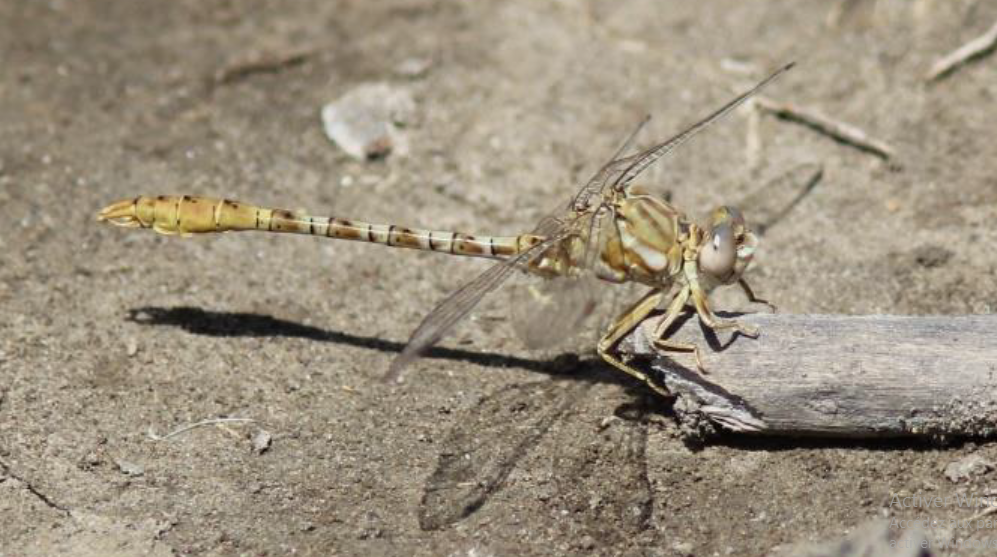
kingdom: Animalia
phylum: Arthropoda
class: Insecta
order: Odonata
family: Gomphidae
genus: Onychogomphus
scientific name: Onychogomphus costae
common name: Faded pincertail
